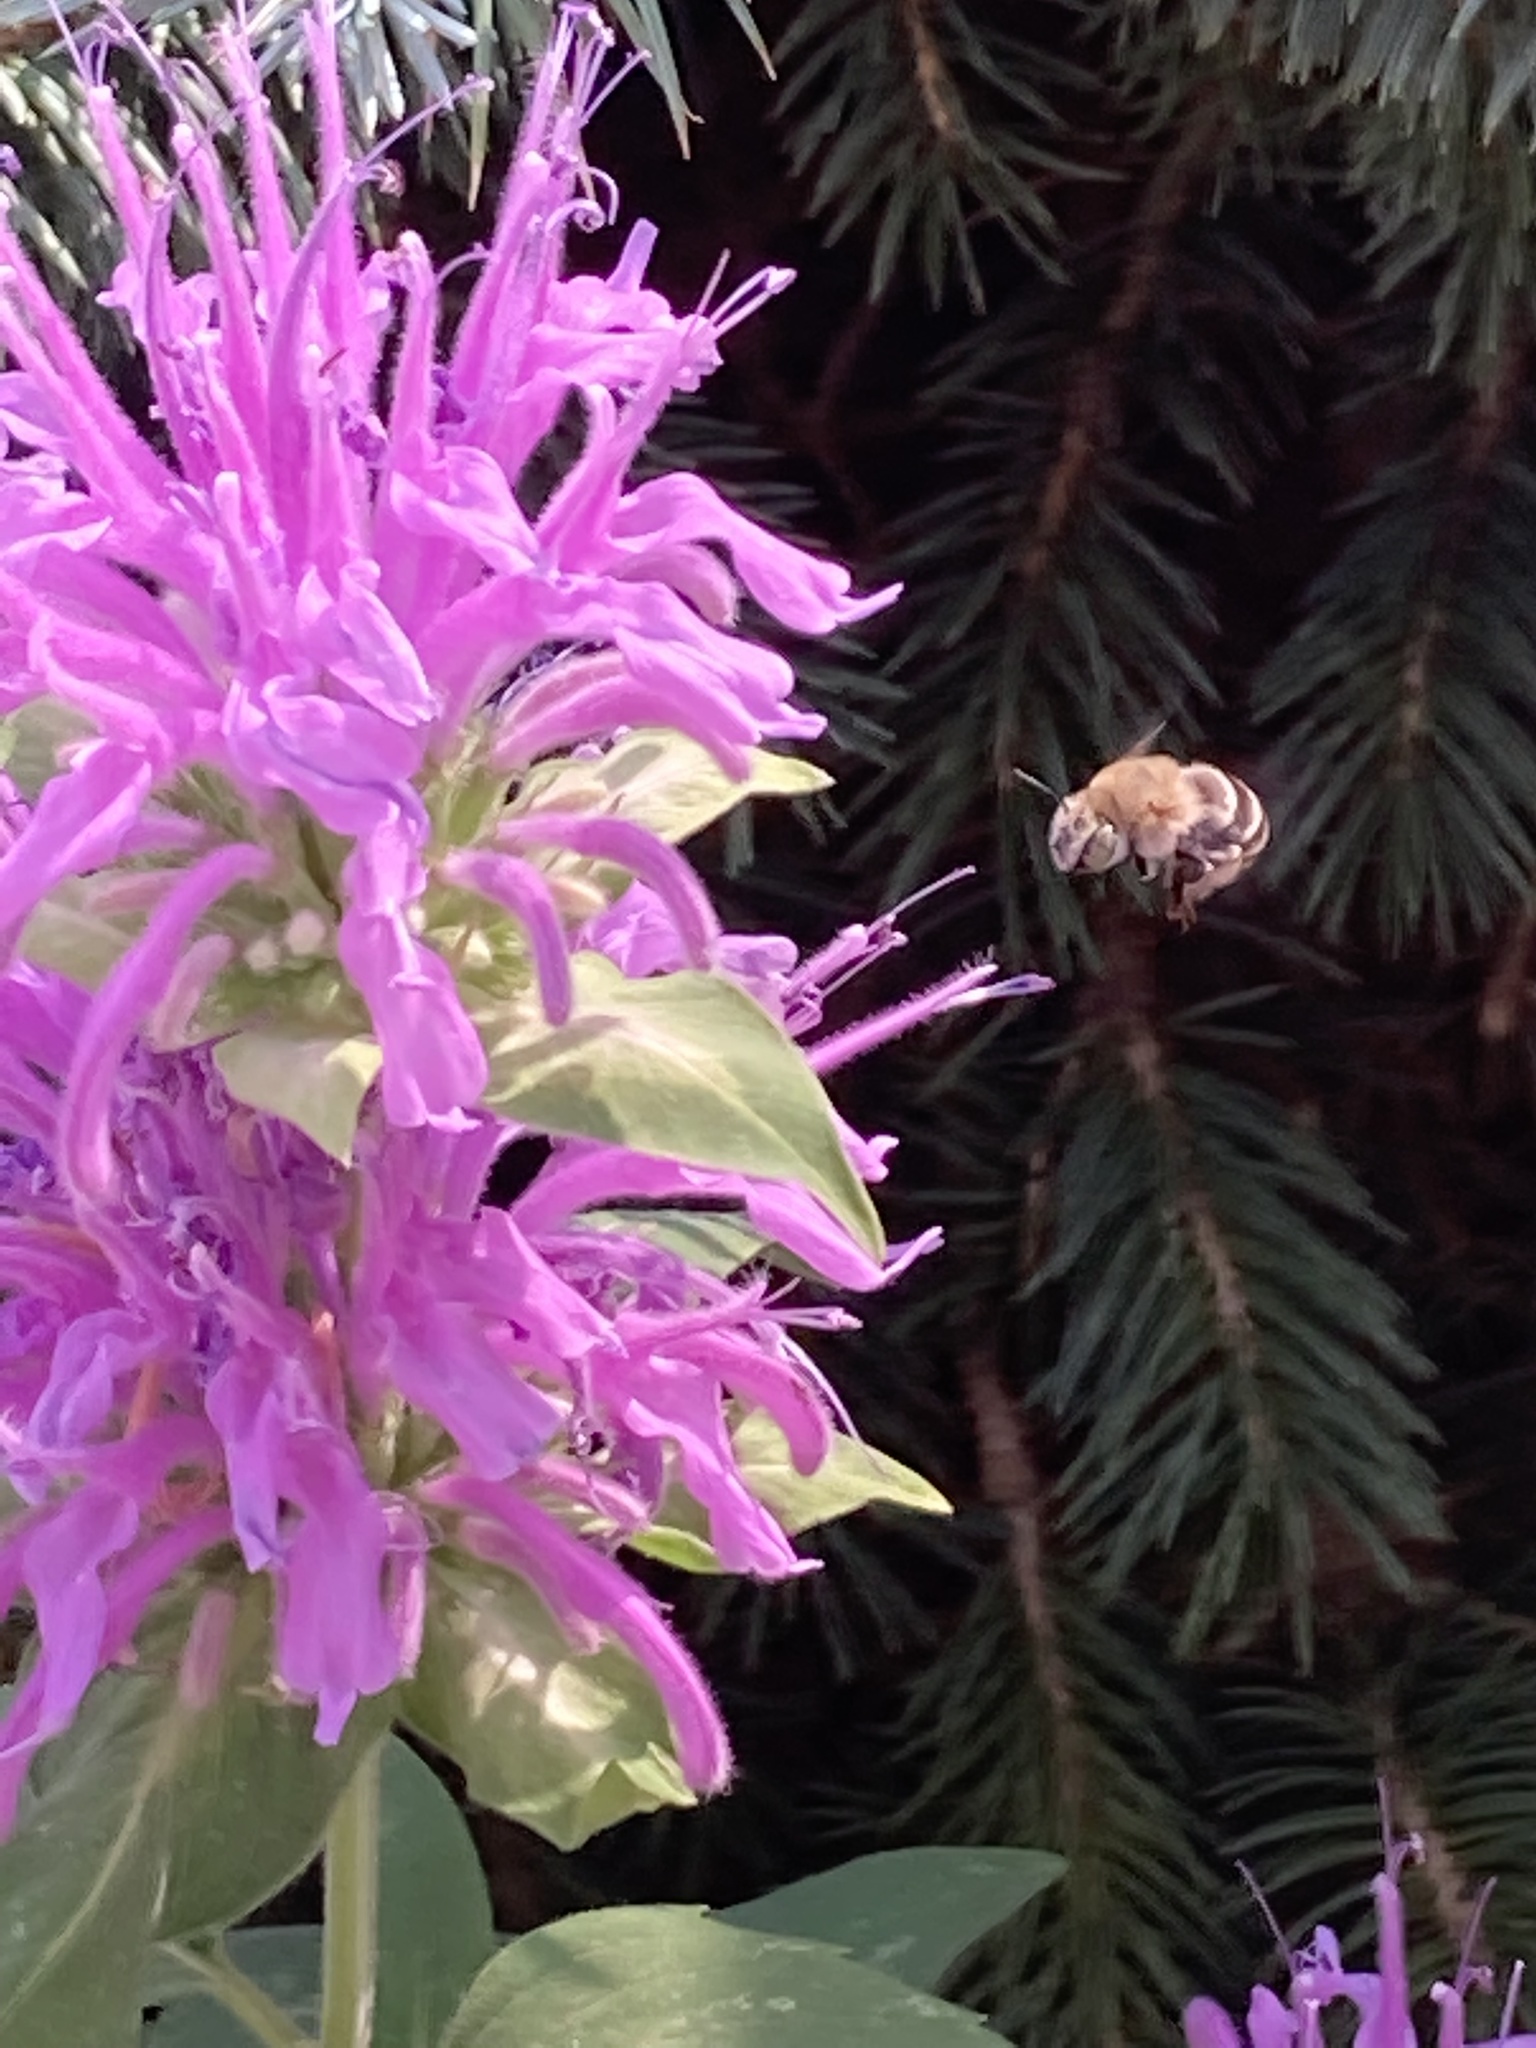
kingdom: Animalia
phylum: Arthropoda
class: Insecta
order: Hymenoptera
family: Apidae
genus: Anthophora
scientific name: Anthophora californica
